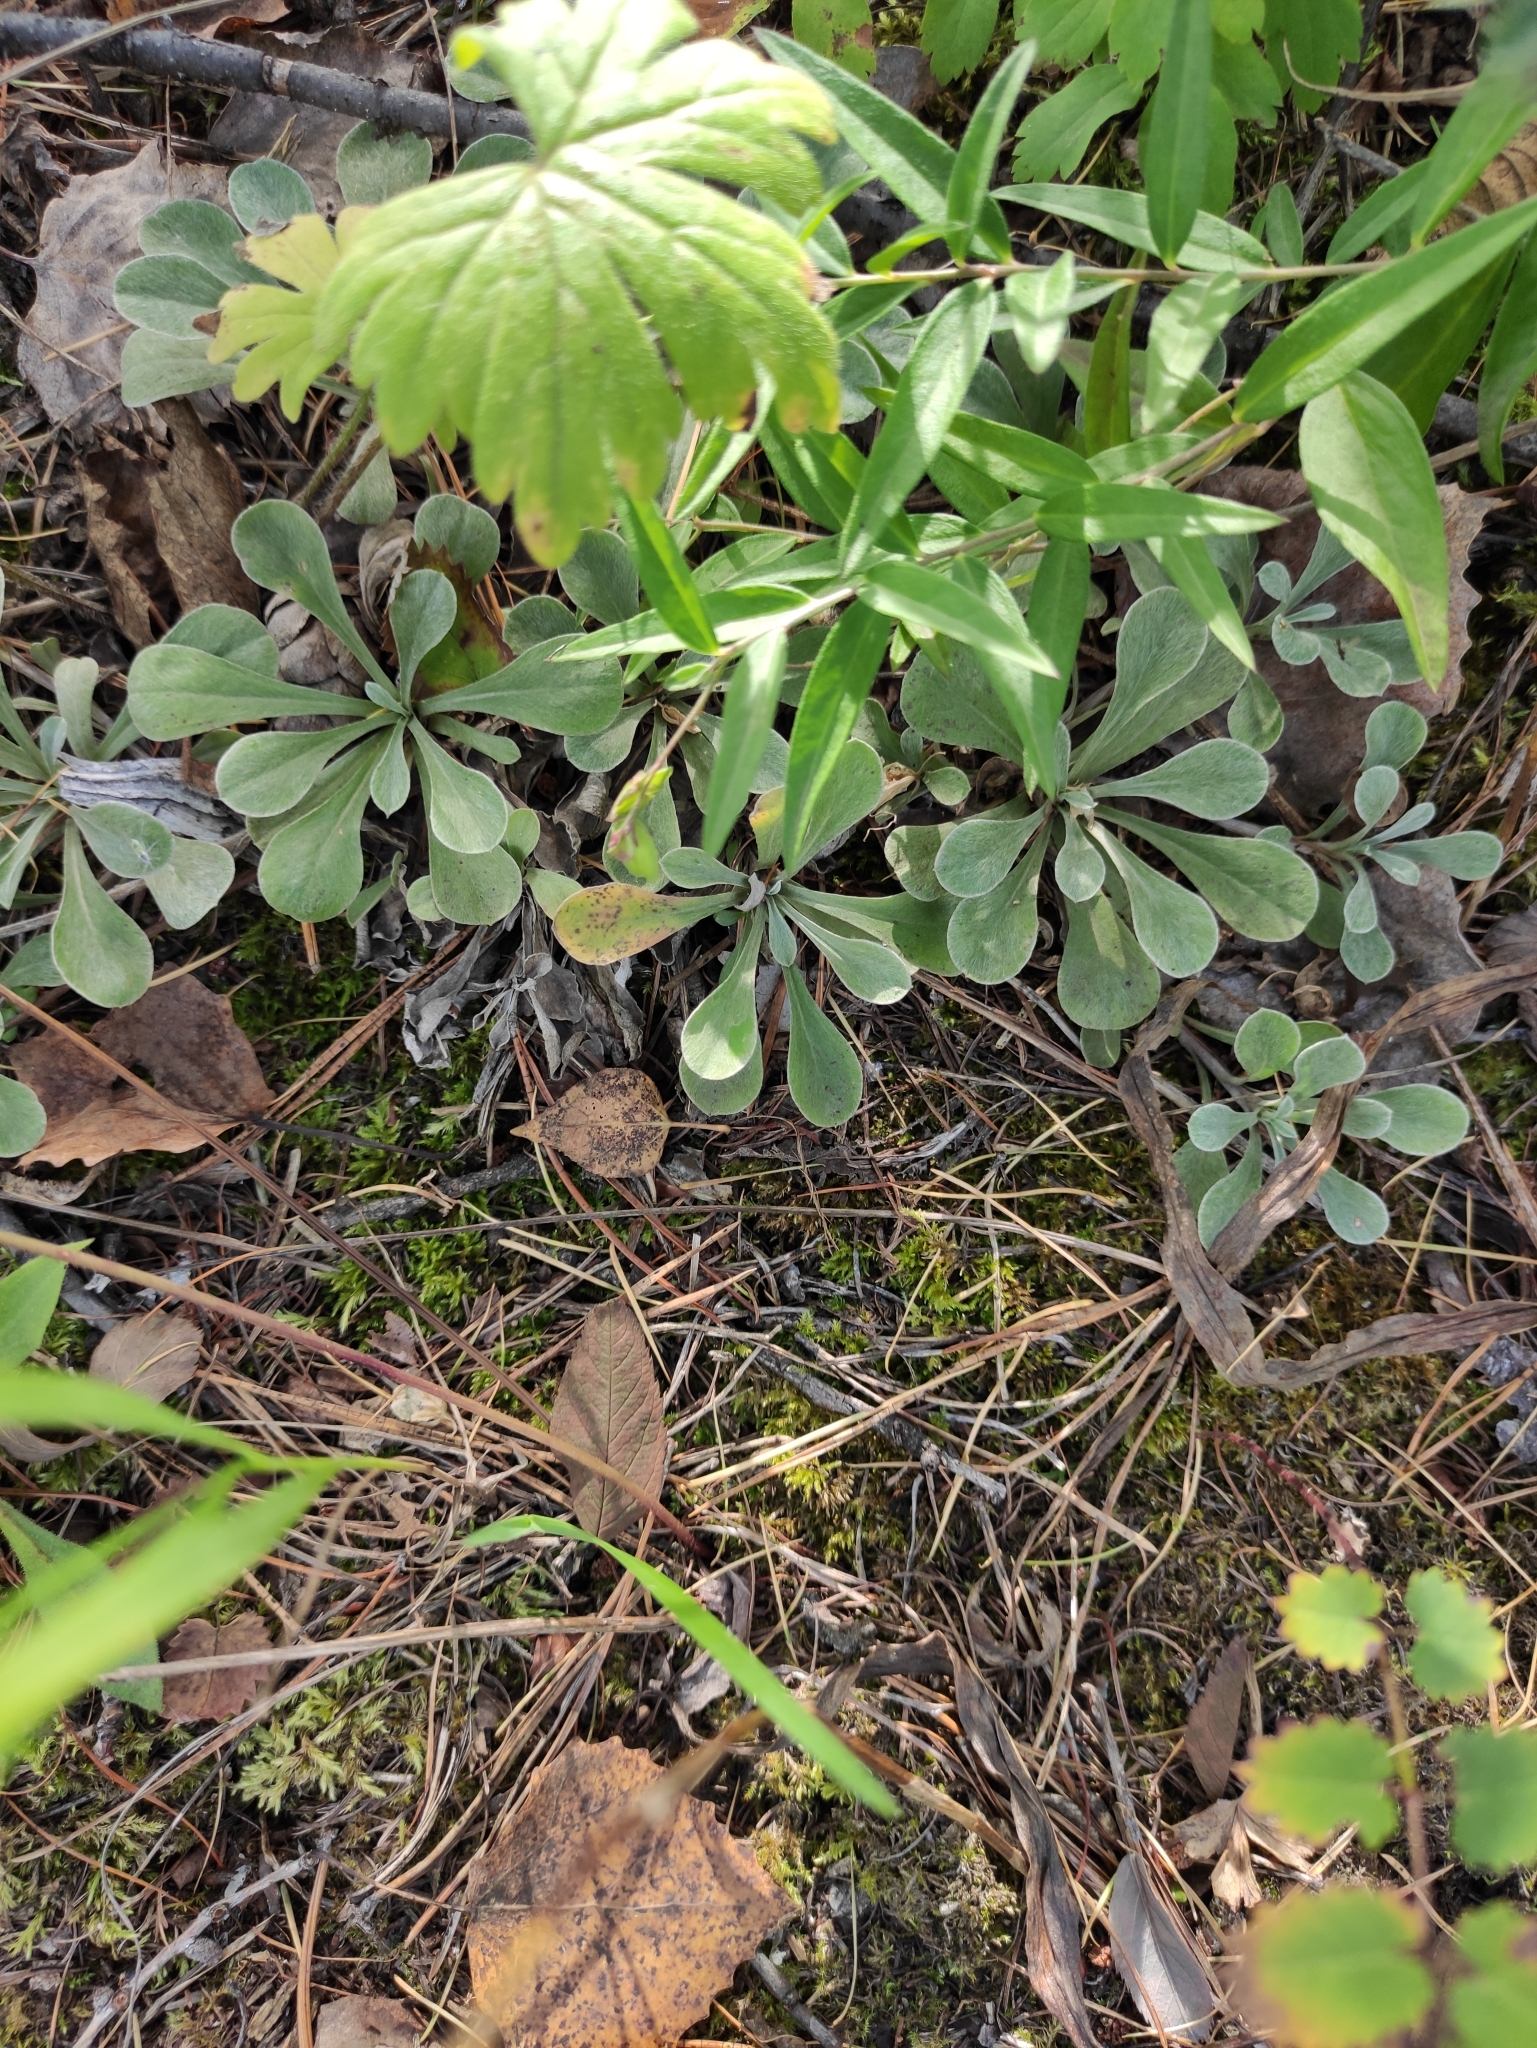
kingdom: Plantae
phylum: Tracheophyta
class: Magnoliopsida
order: Asterales
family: Asteraceae
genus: Antennaria
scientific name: Antennaria dioica
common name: Mountain everlasting
